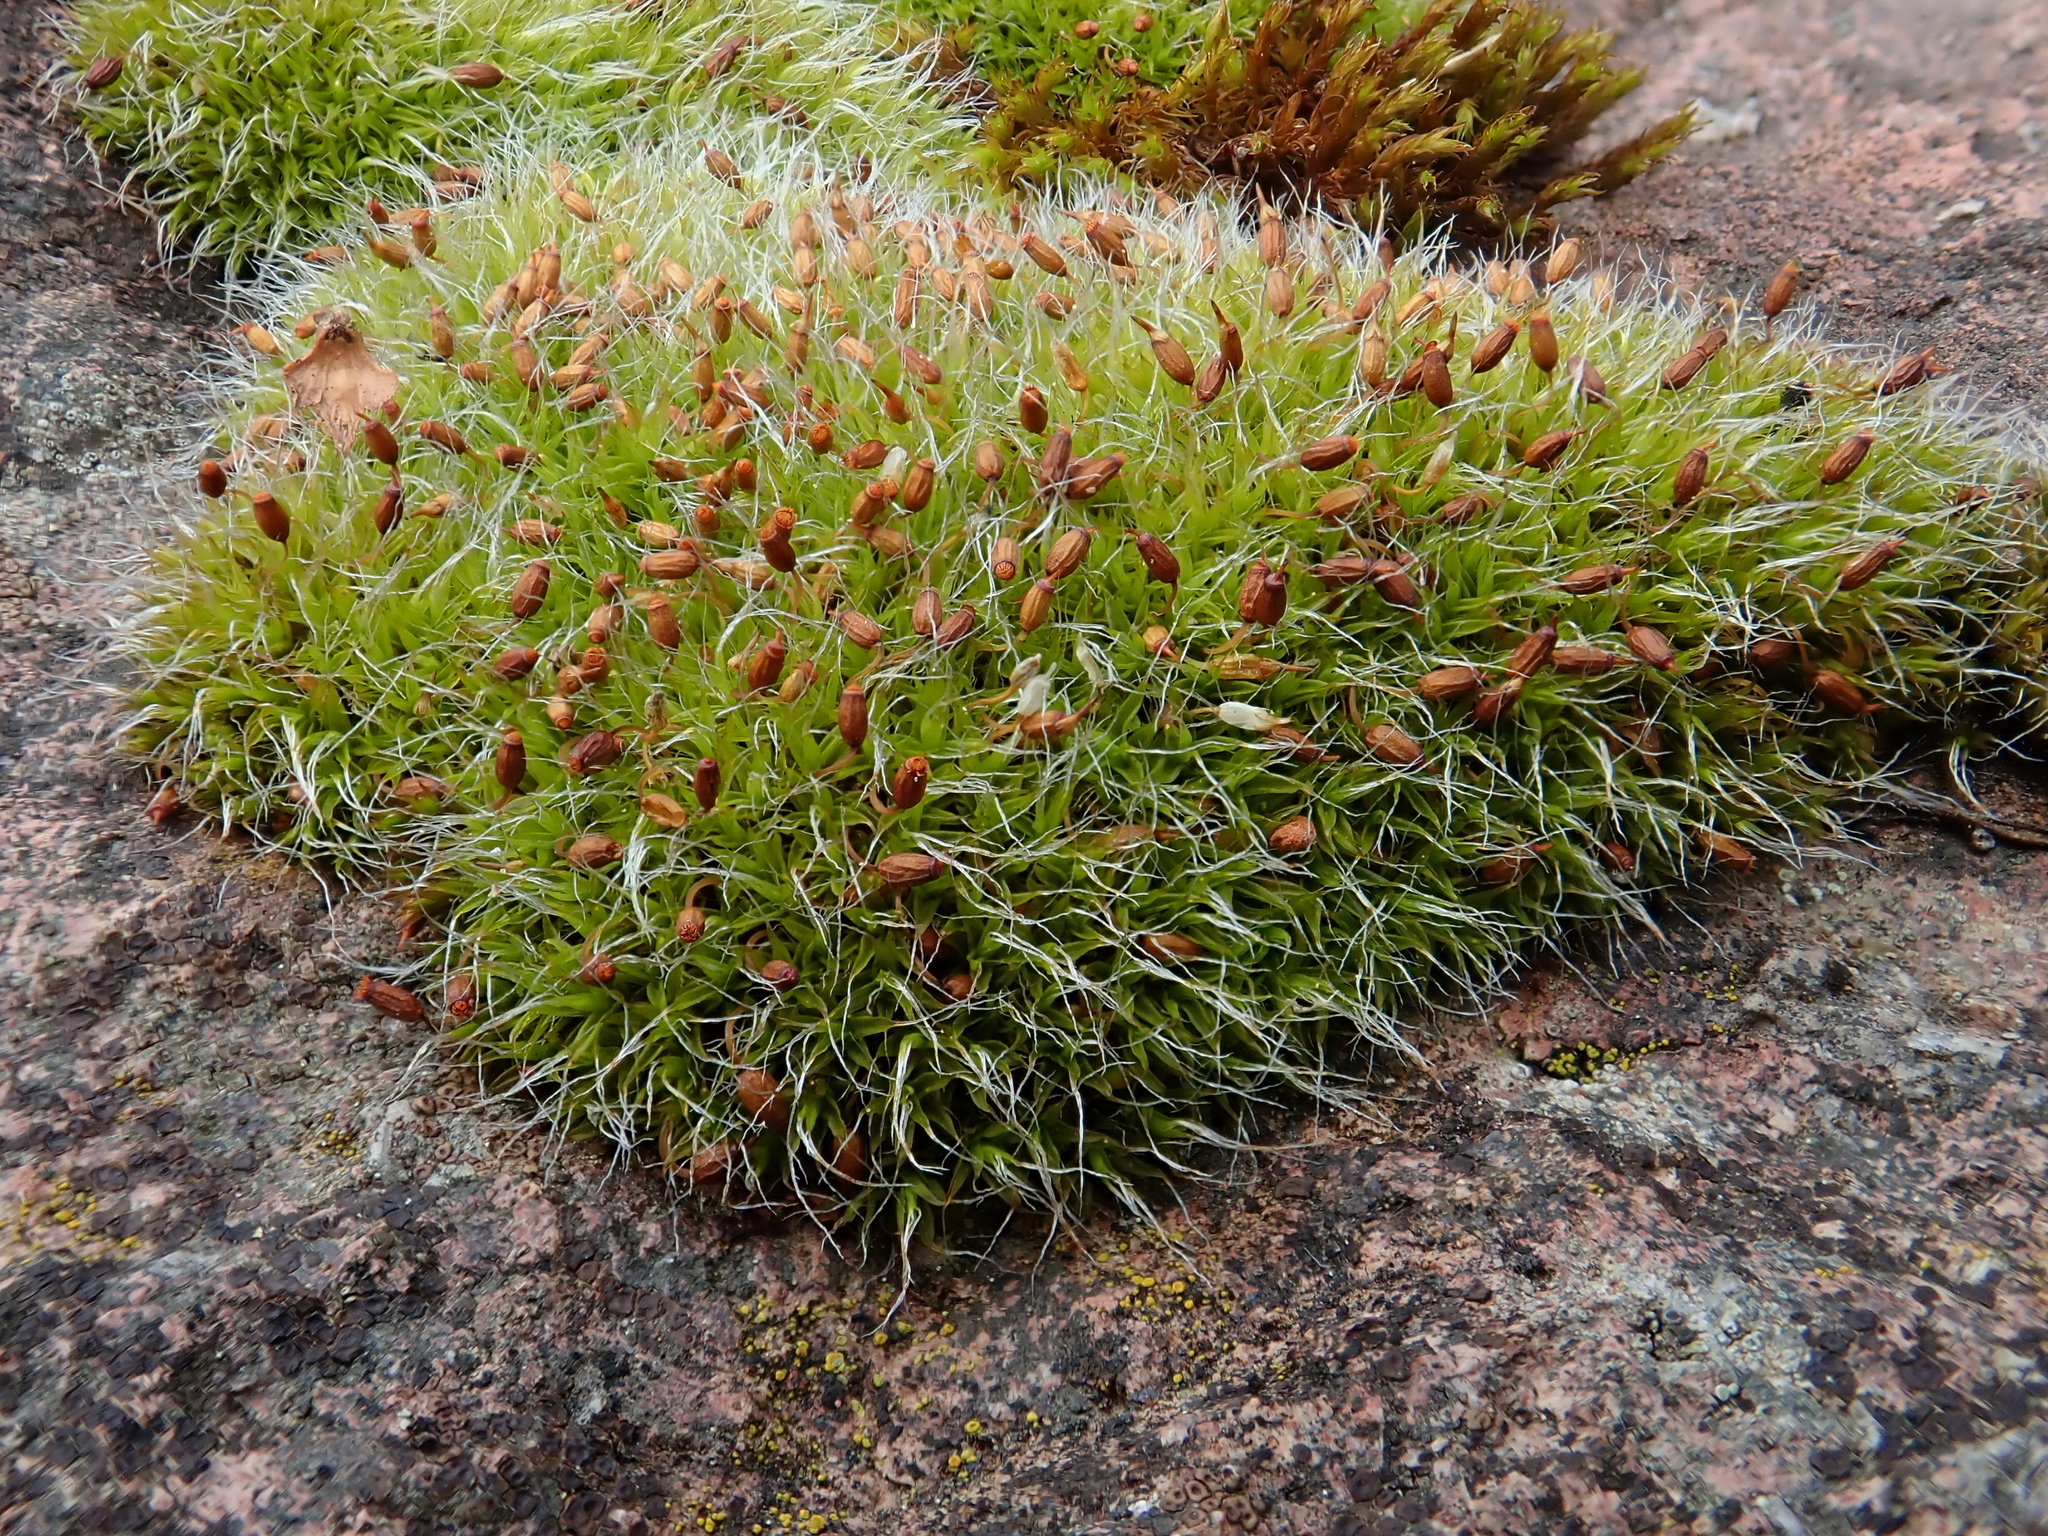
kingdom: Plantae
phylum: Bryophyta
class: Bryopsida
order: Grimmiales
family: Grimmiaceae
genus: Grimmia
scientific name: Grimmia pulvinata
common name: Grey-cushioned grimmia
